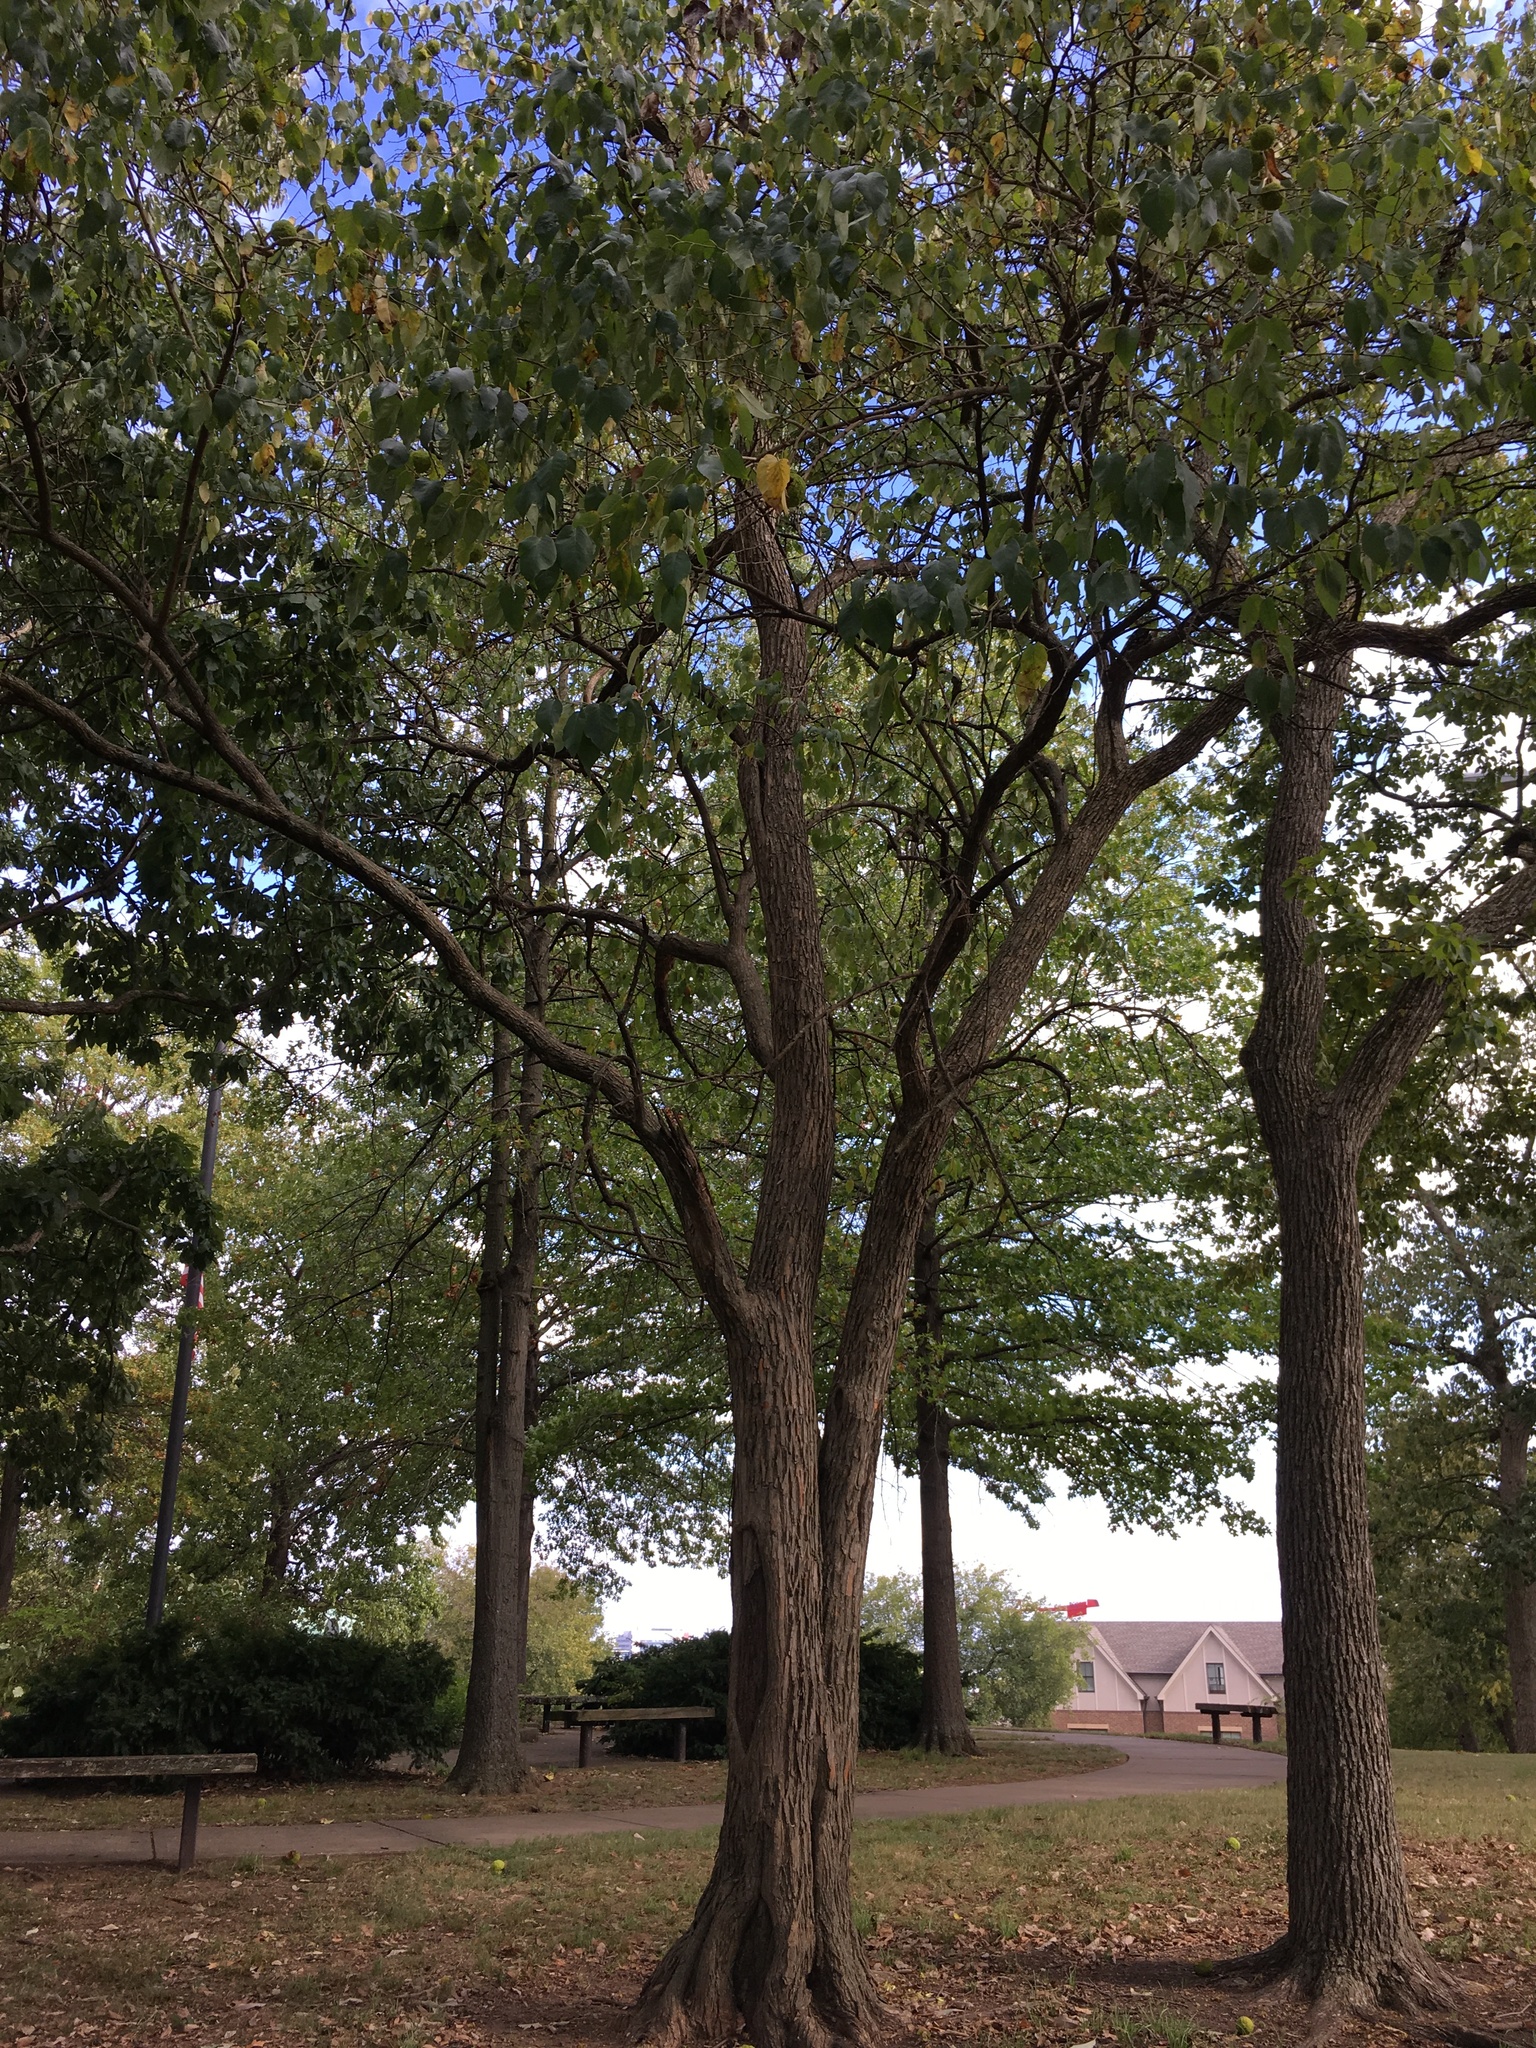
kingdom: Plantae
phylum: Tracheophyta
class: Magnoliopsida
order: Rosales
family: Moraceae
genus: Maclura
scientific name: Maclura pomifera
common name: Osage-orange
